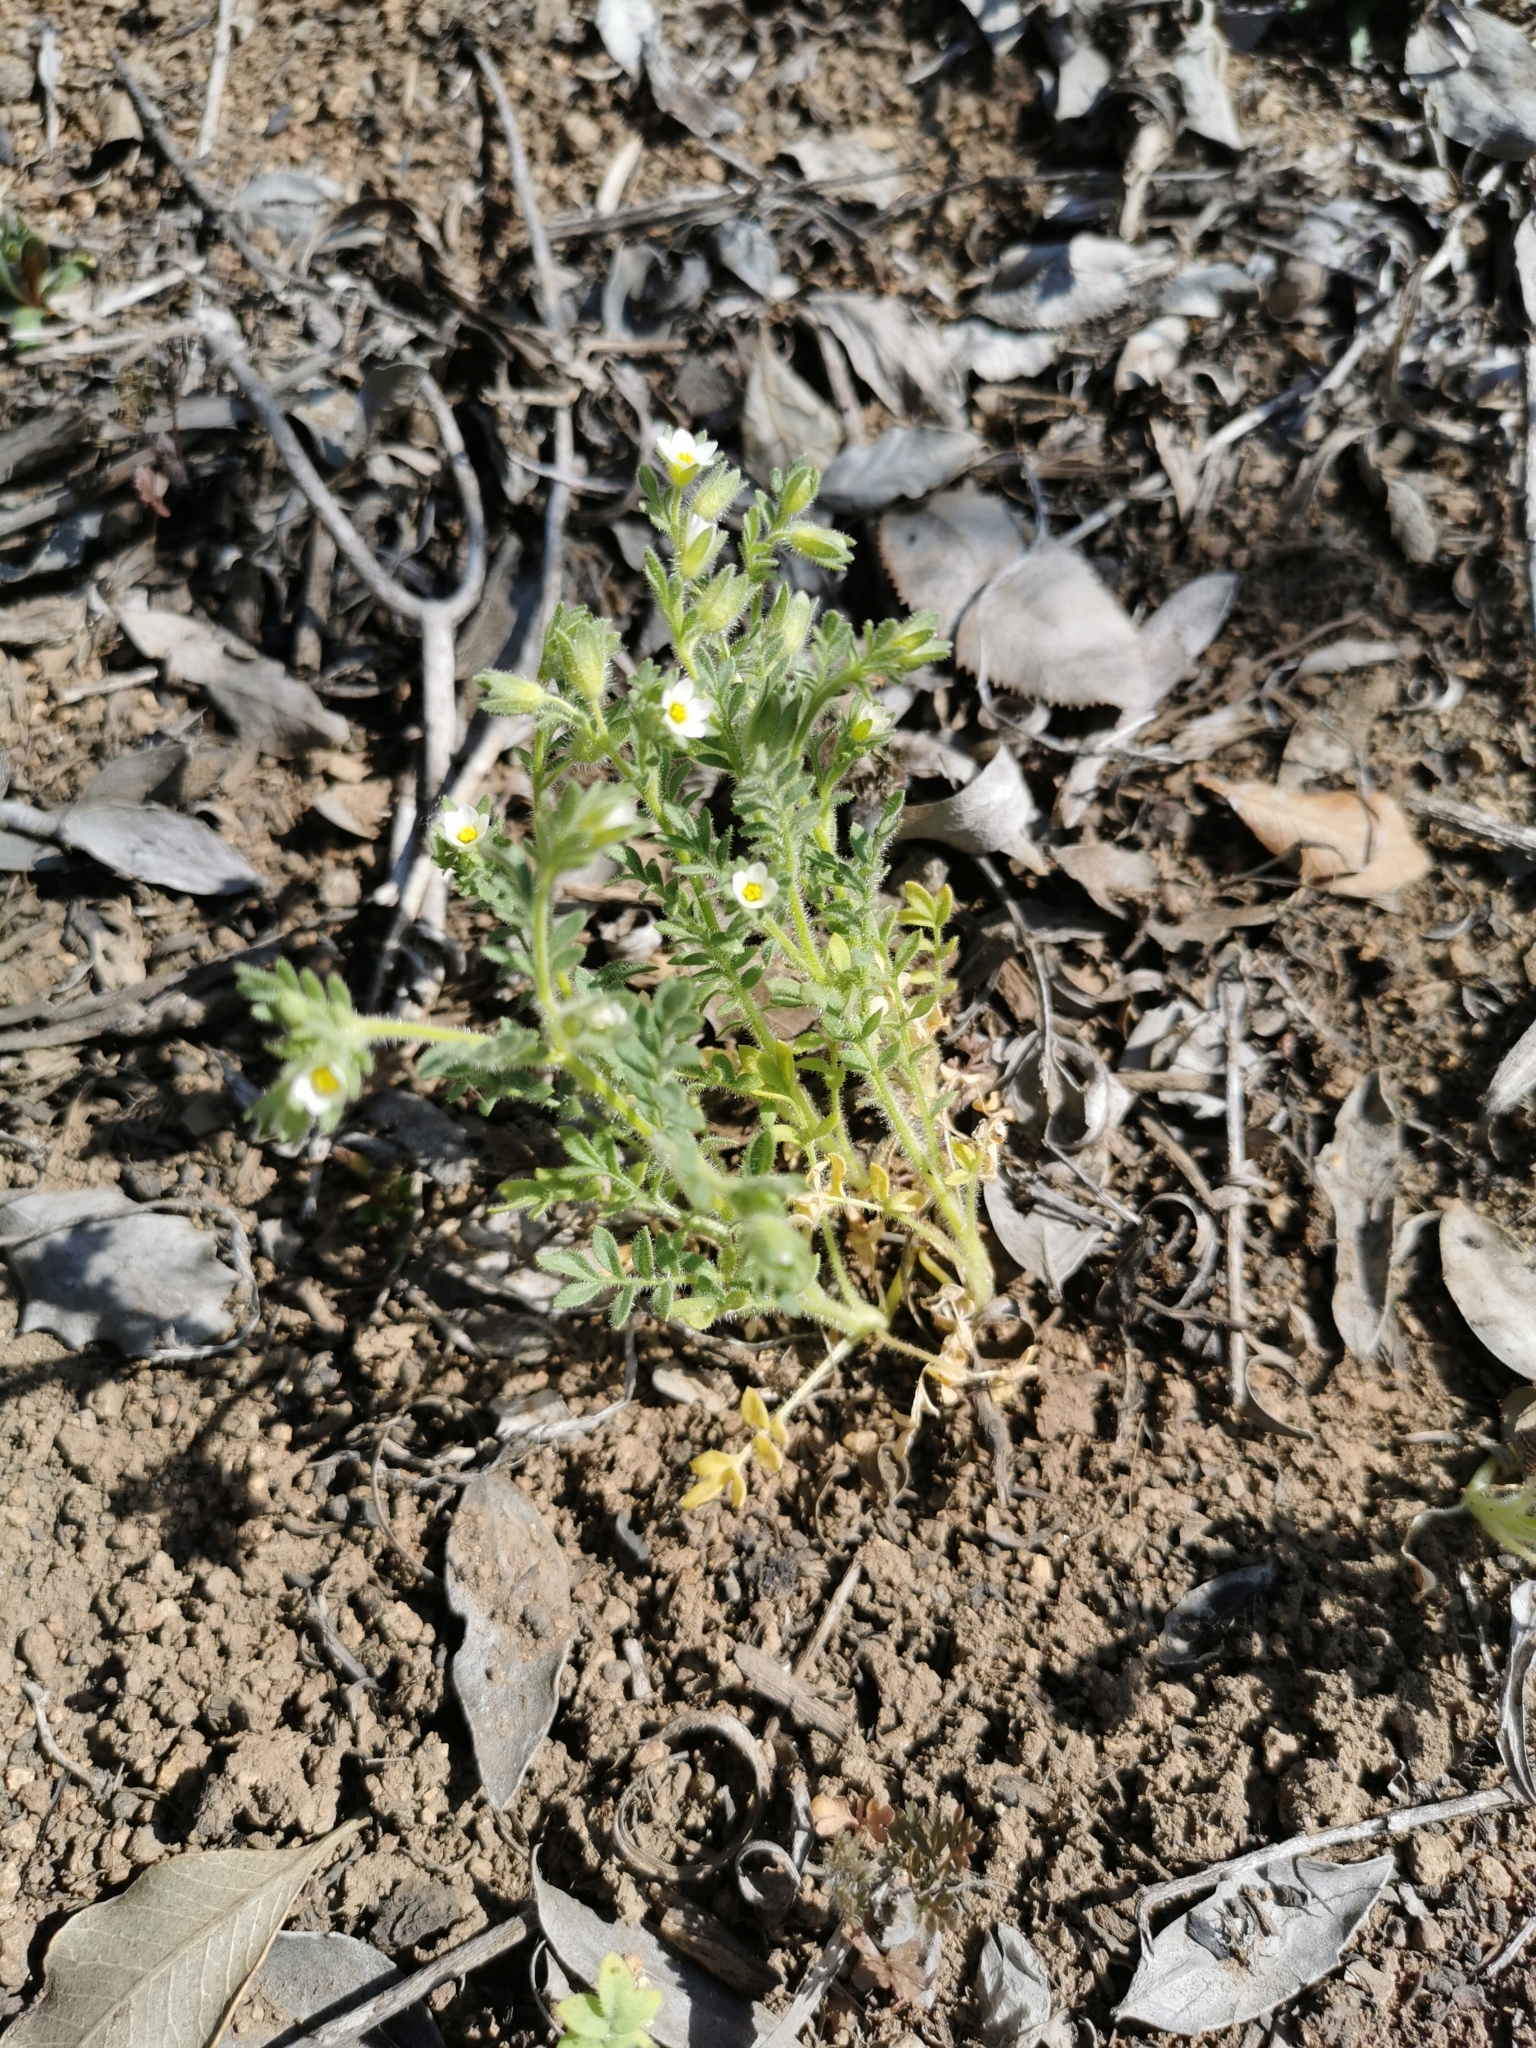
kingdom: Plantae
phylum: Tracheophyta
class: Magnoliopsida
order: Ericales
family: Polemoniaceae
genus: Polemonium
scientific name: Polemonium micranthum
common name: Annual jacob's-ladder
